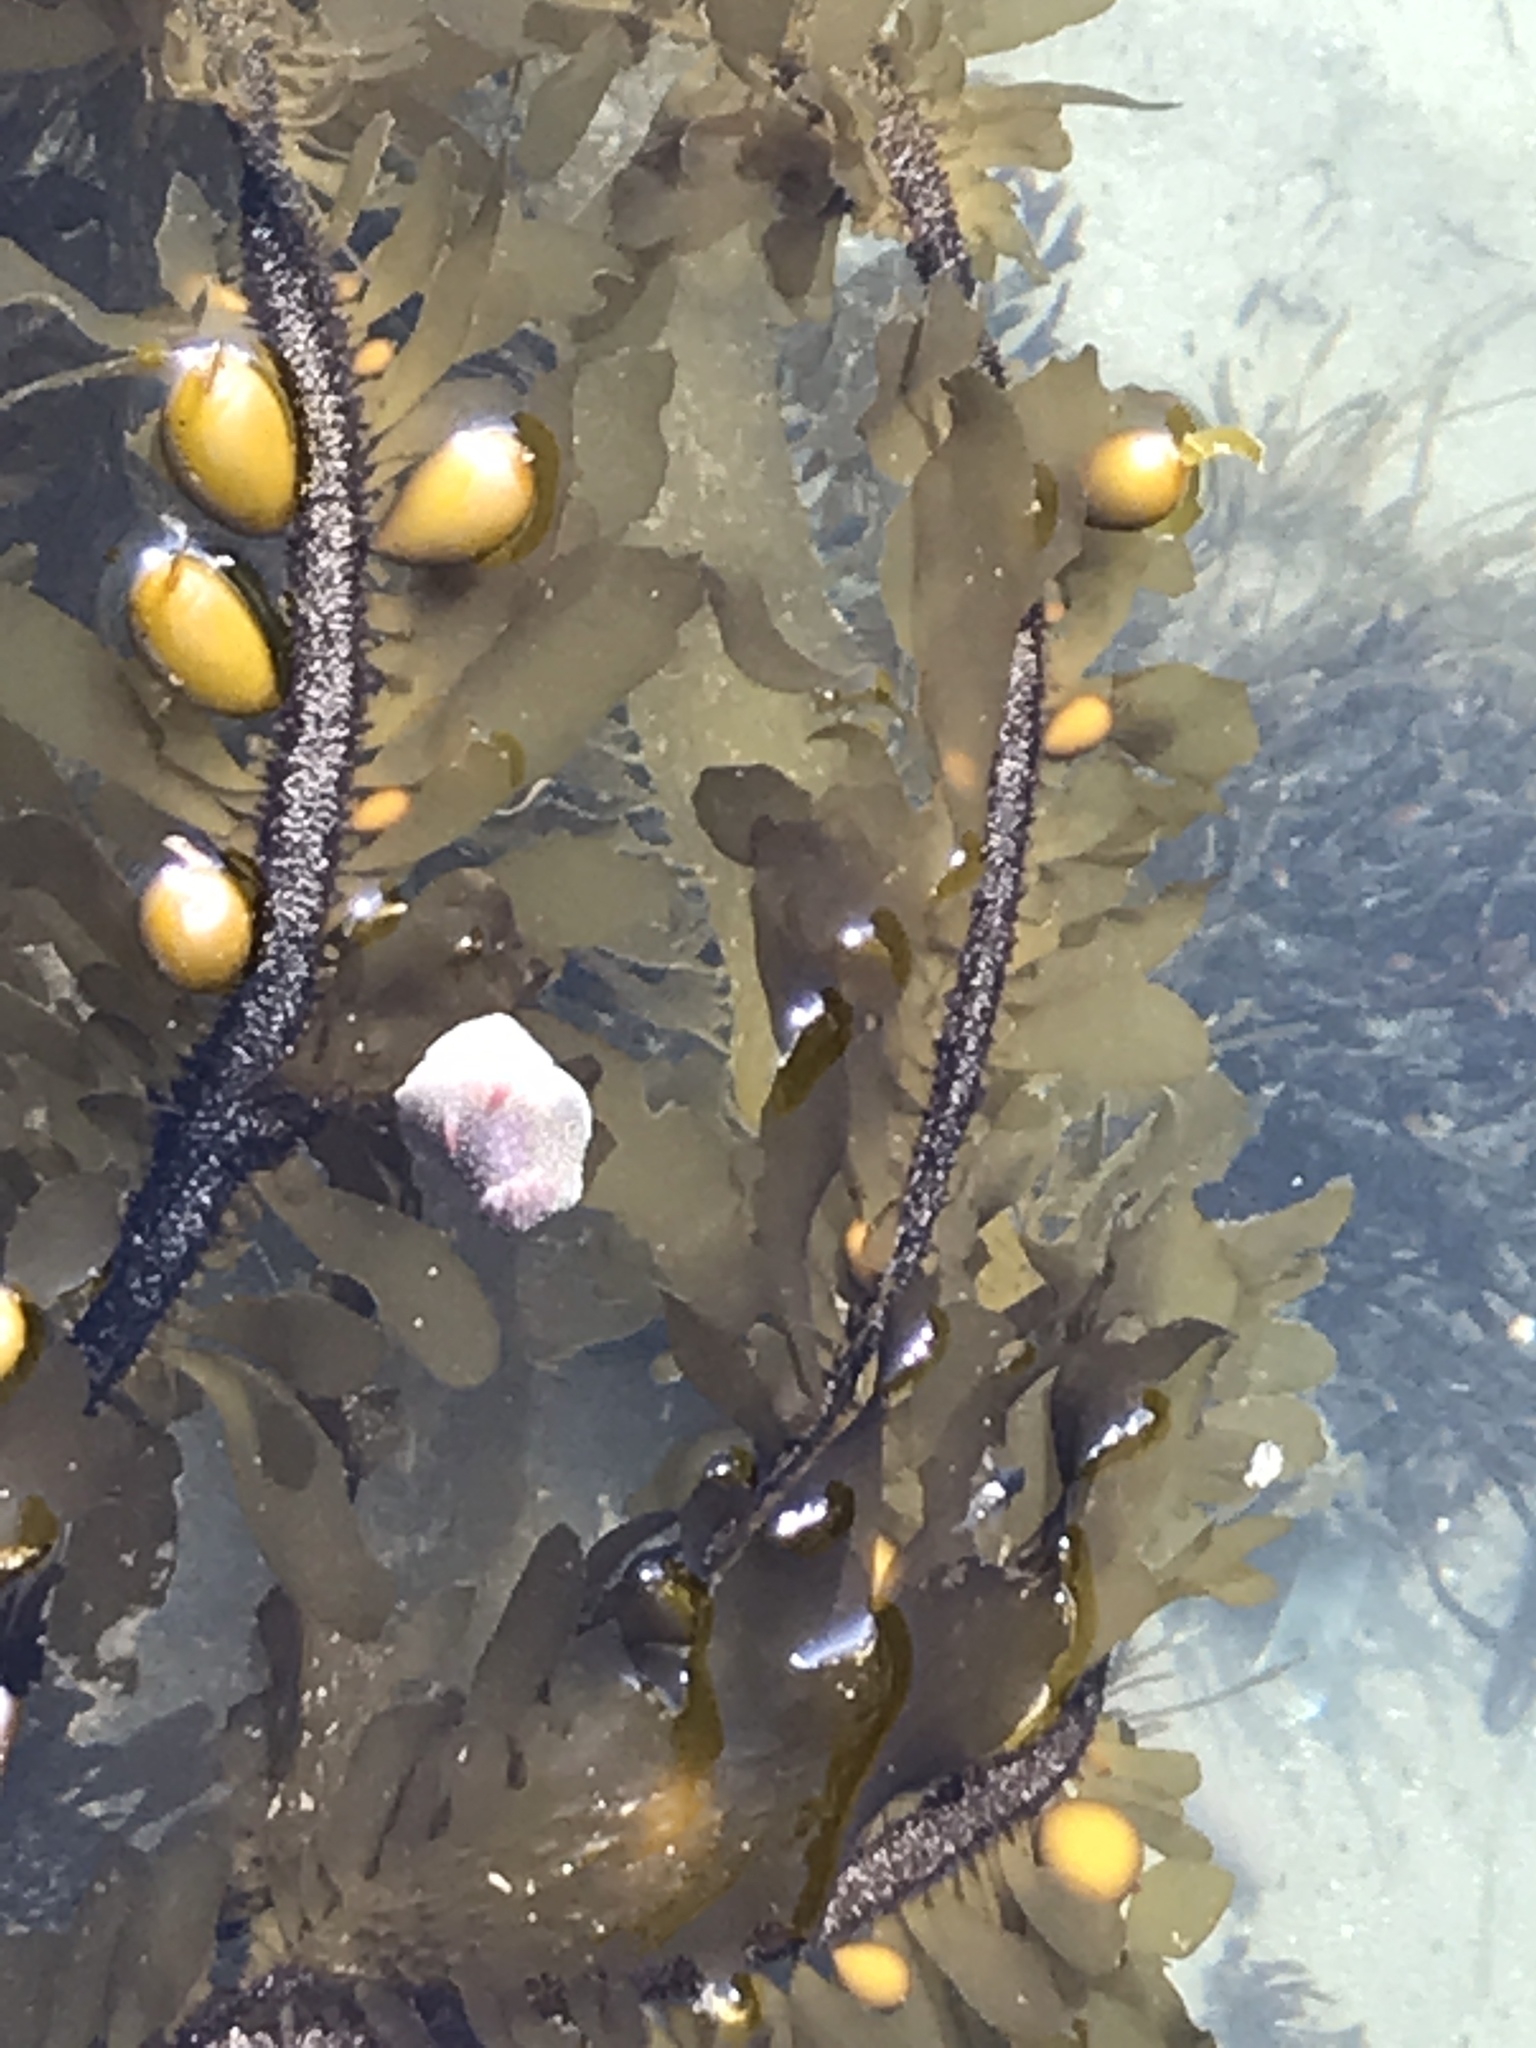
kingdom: Chromista
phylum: Ochrophyta
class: Phaeophyceae
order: Laminariales
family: Lessoniaceae
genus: Egregia
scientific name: Egregia menziesii
